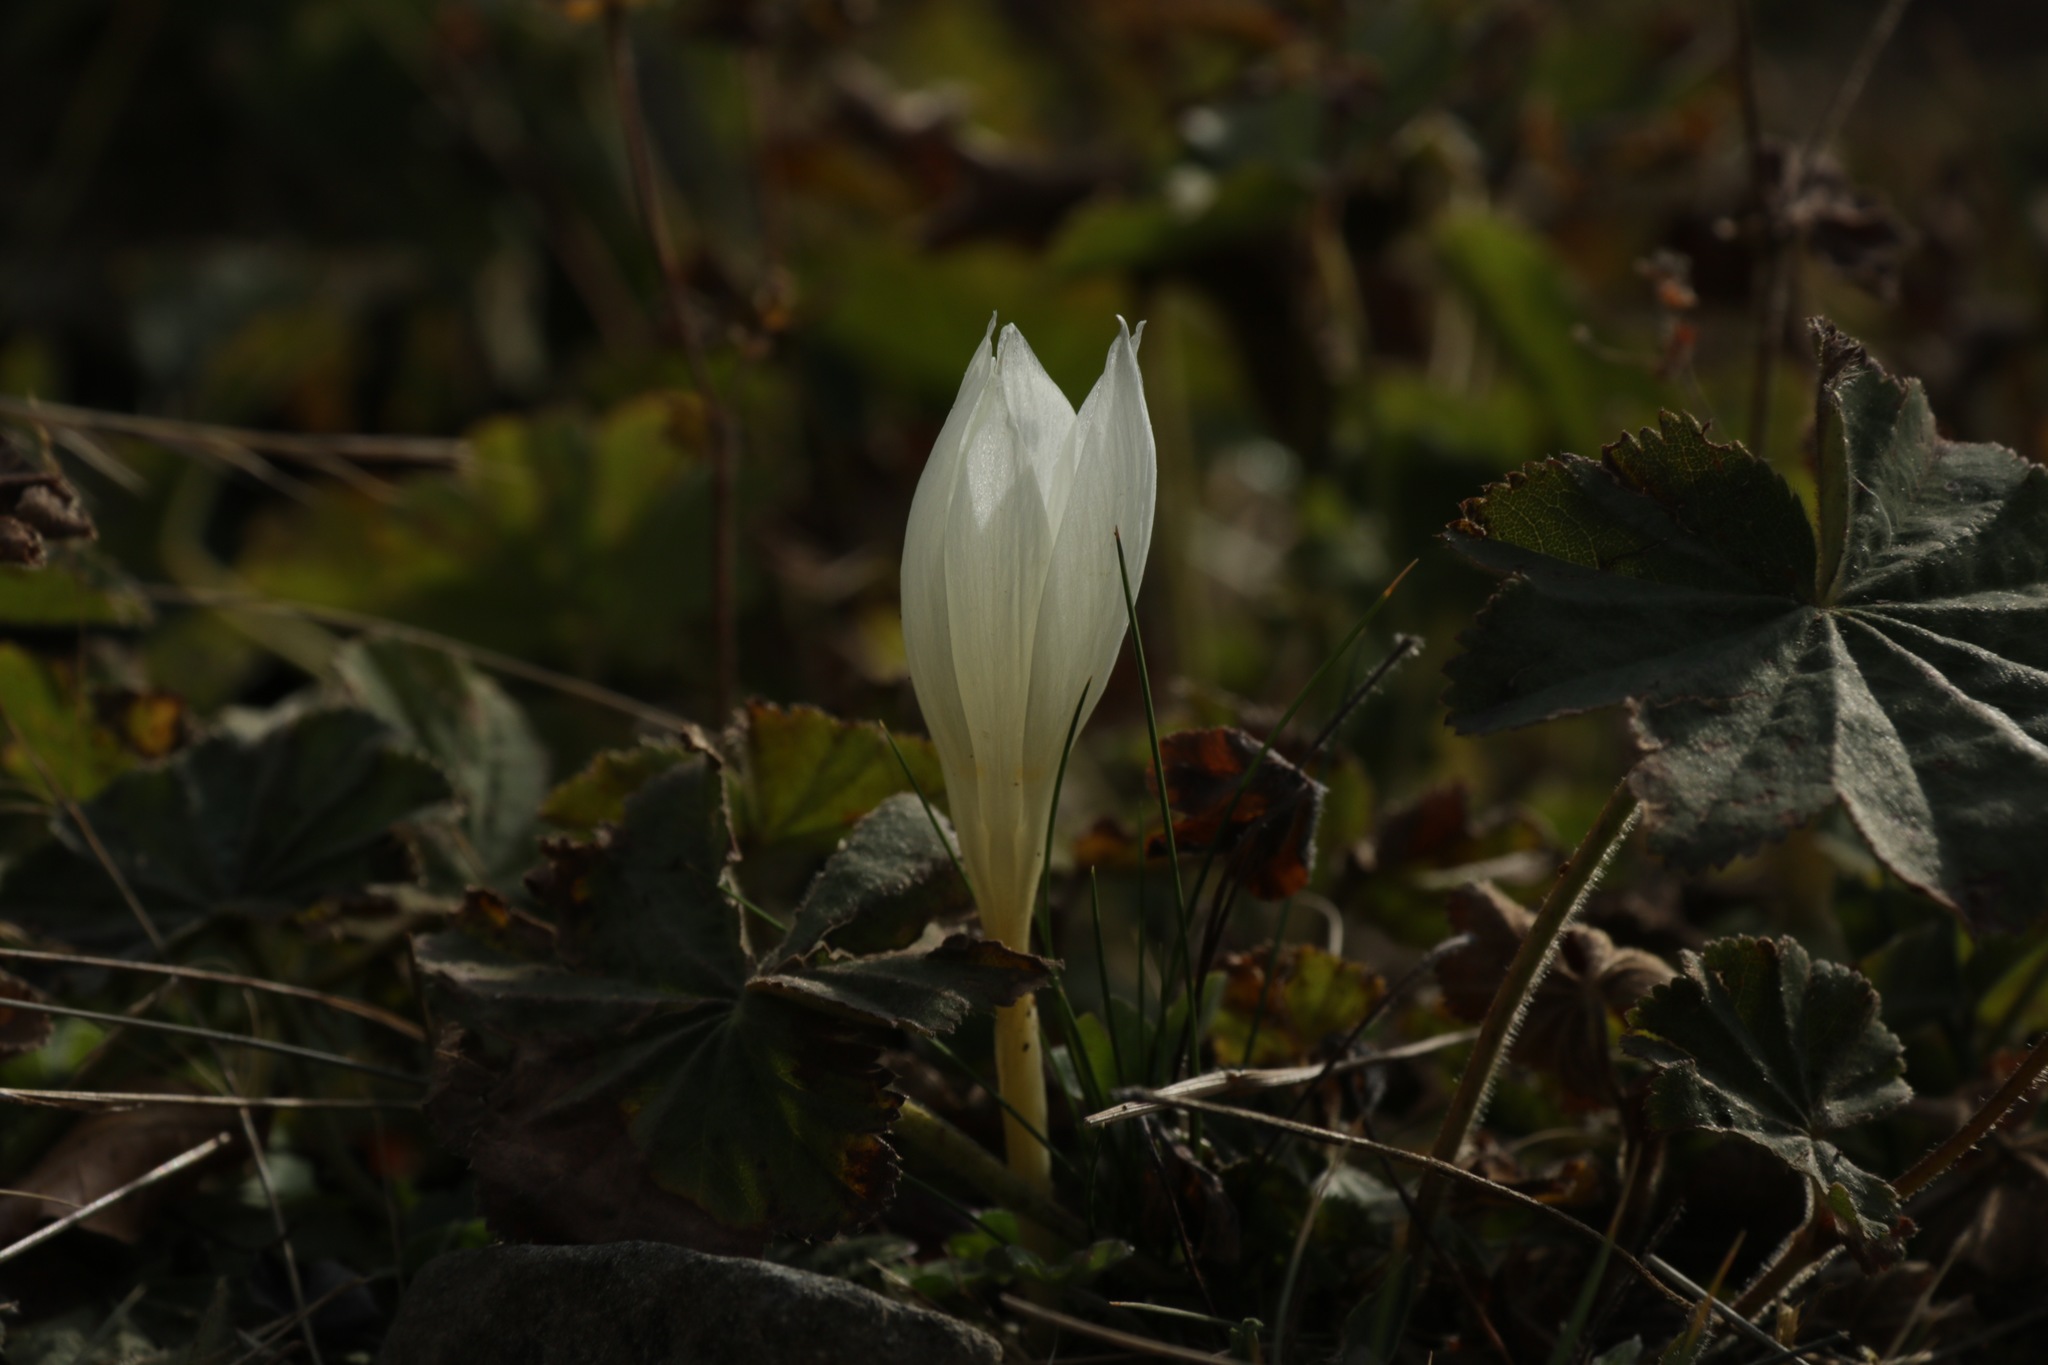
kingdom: Plantae
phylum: Tracheophyta
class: Liliopsida
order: Asparagales
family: Iridaceae
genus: Crocus
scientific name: Crocus vallicola
